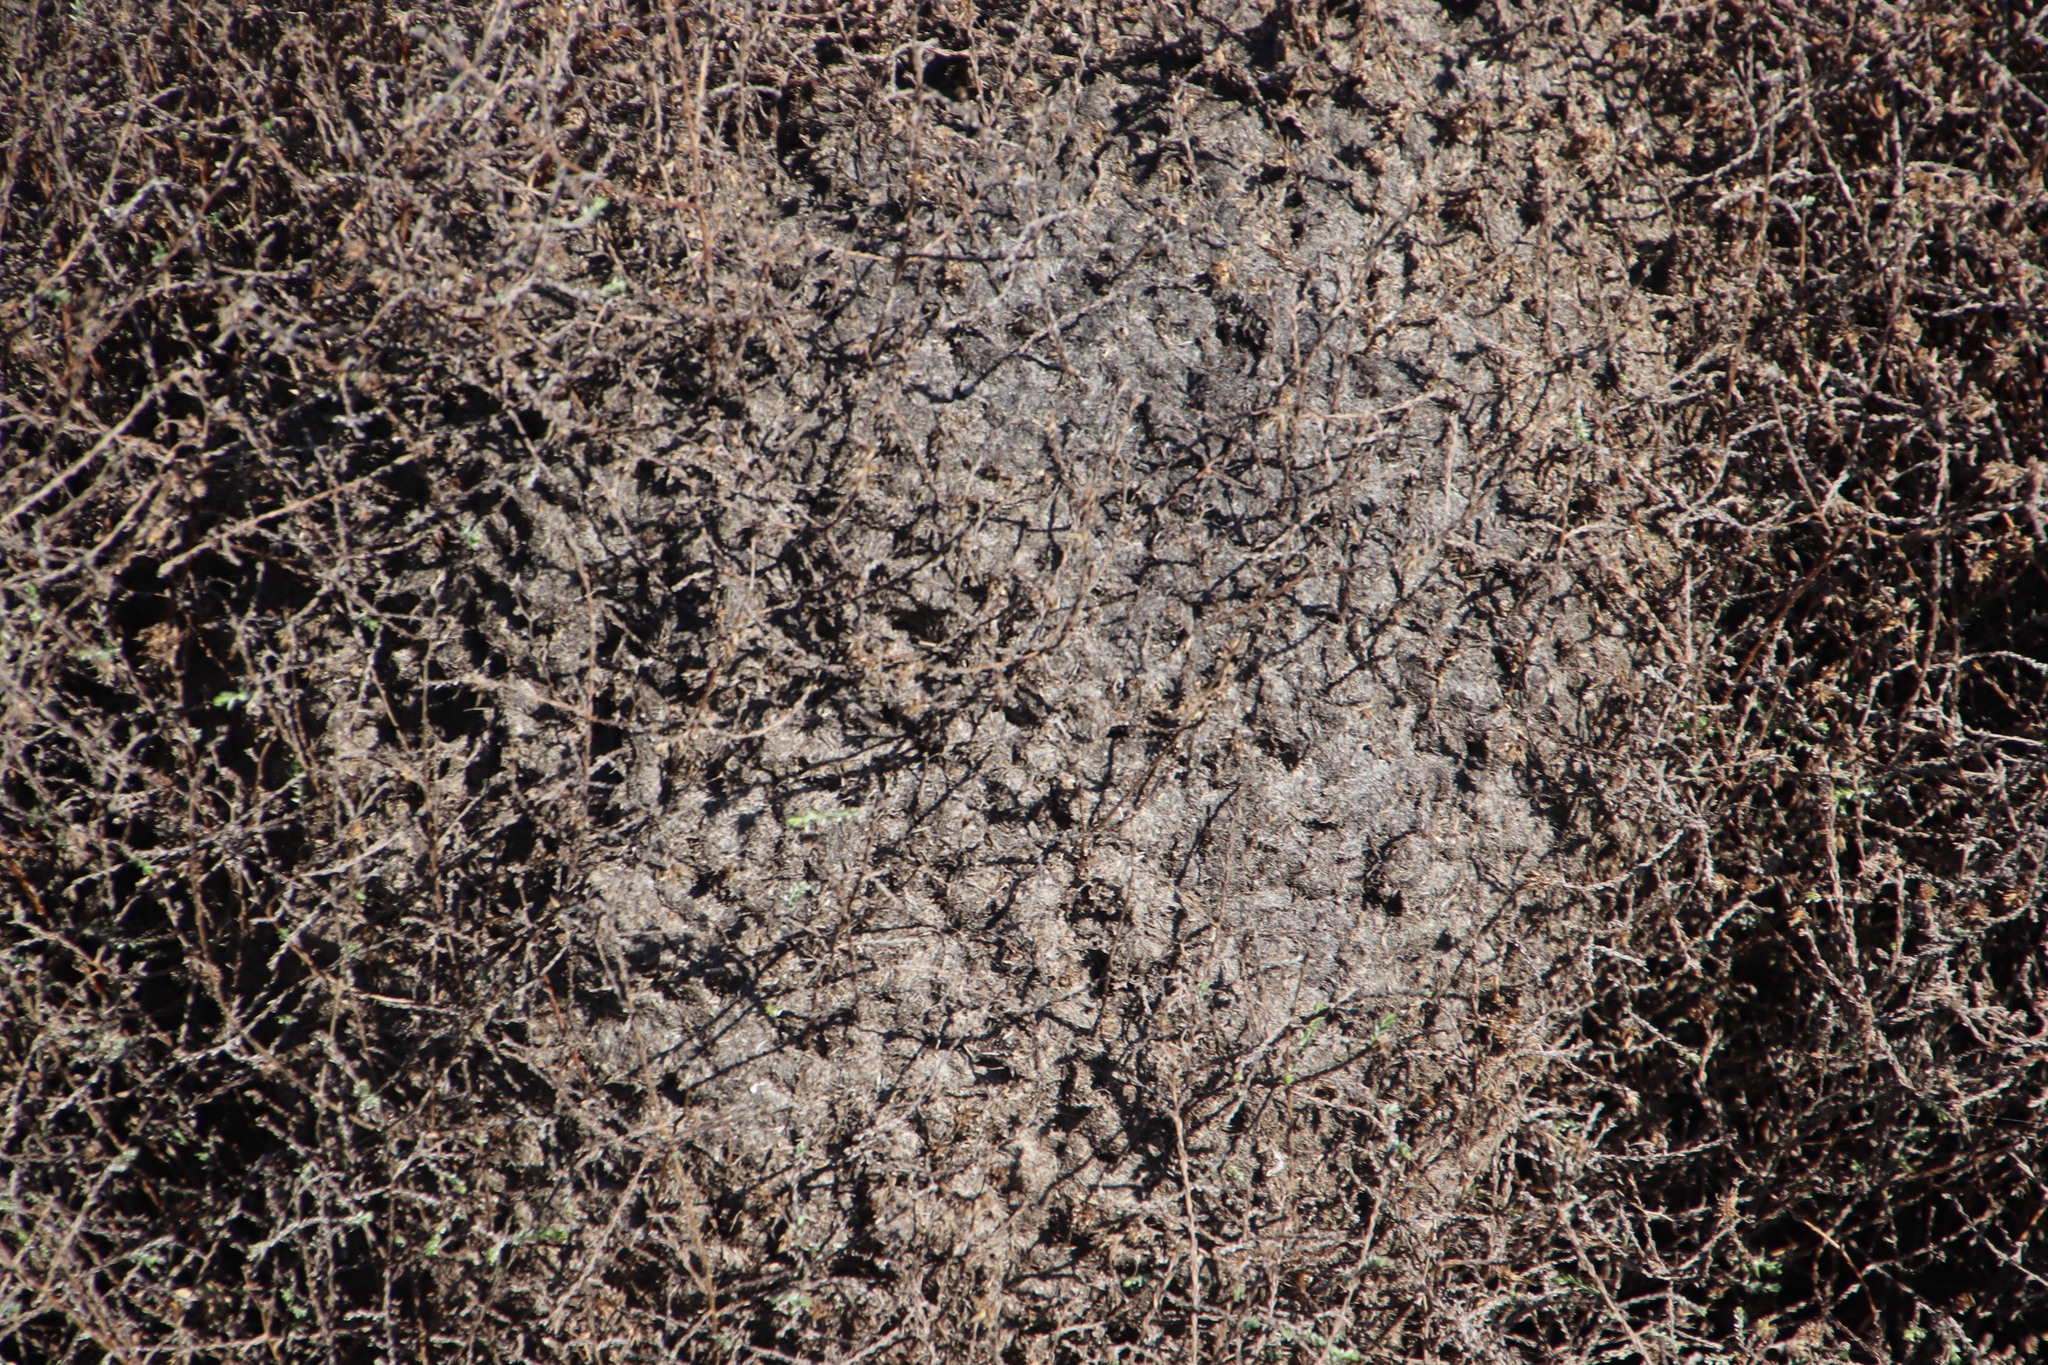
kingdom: Animalia
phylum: Arthropoda
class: Insecta
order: Hymenoptera
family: Formicidae
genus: Crematogaster
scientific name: Crematogaster peringueyi
